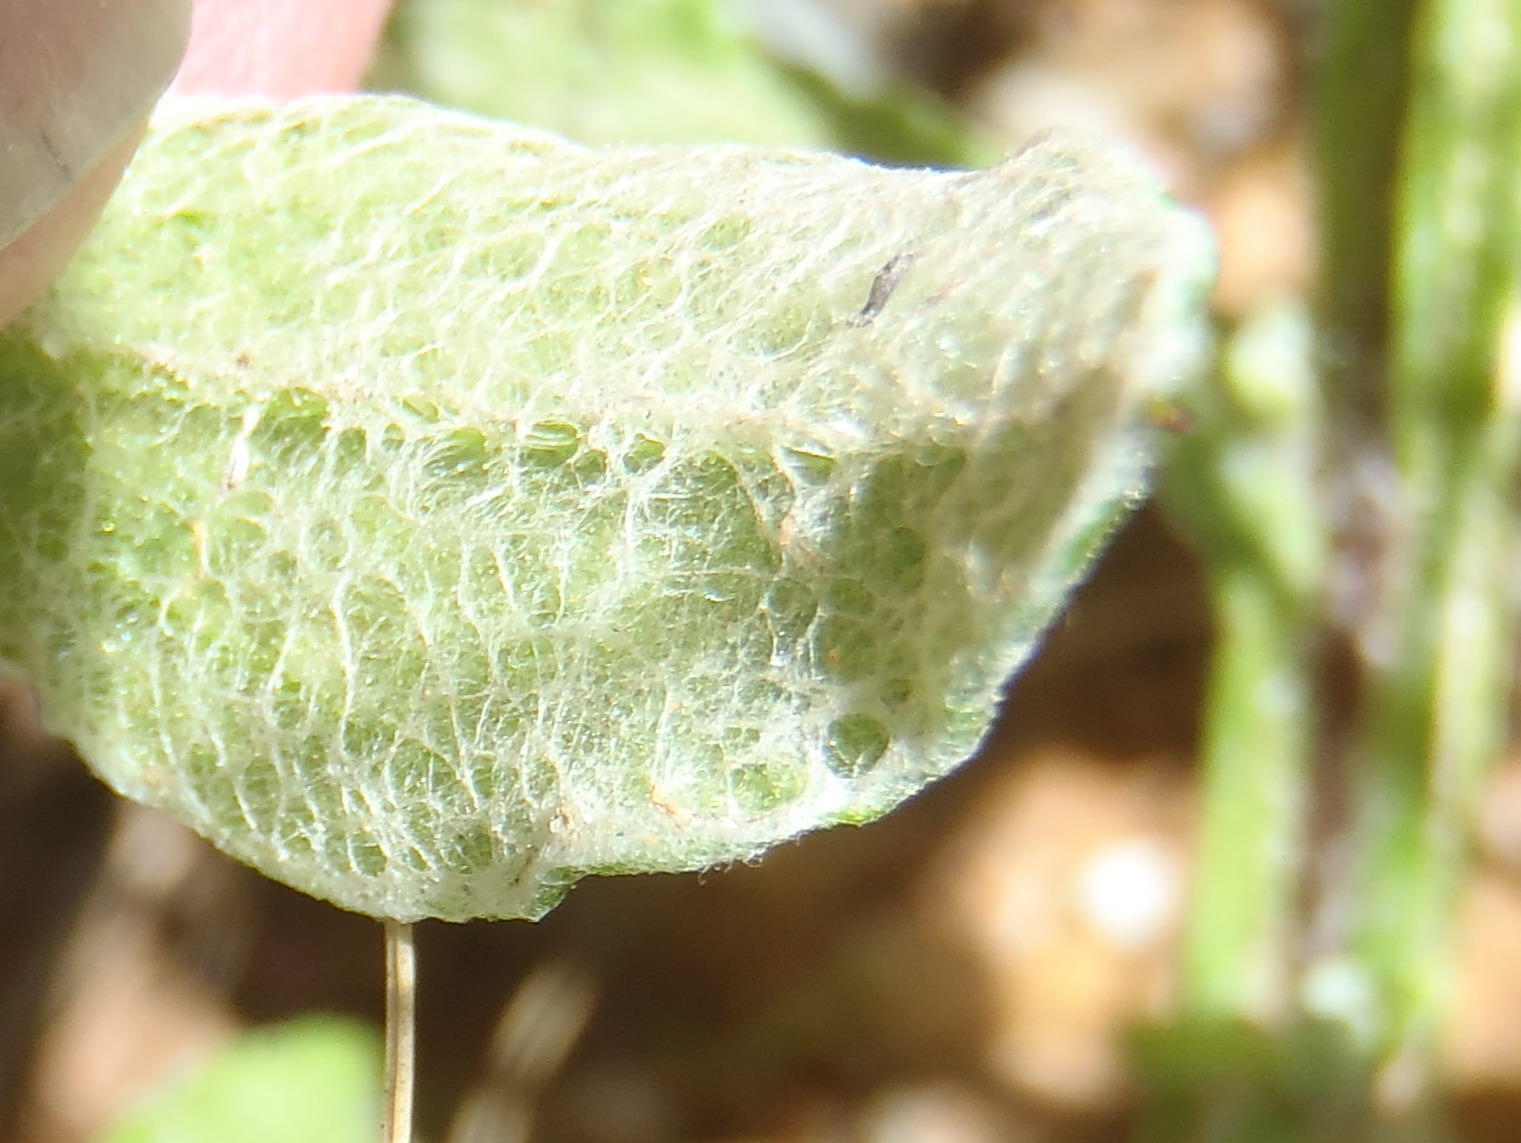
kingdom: Plantae
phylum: Tracheophyta
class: Magnoliopsida
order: Asterales
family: Asteraceae
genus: Helichrysum
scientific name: Helichrysum cymosum
